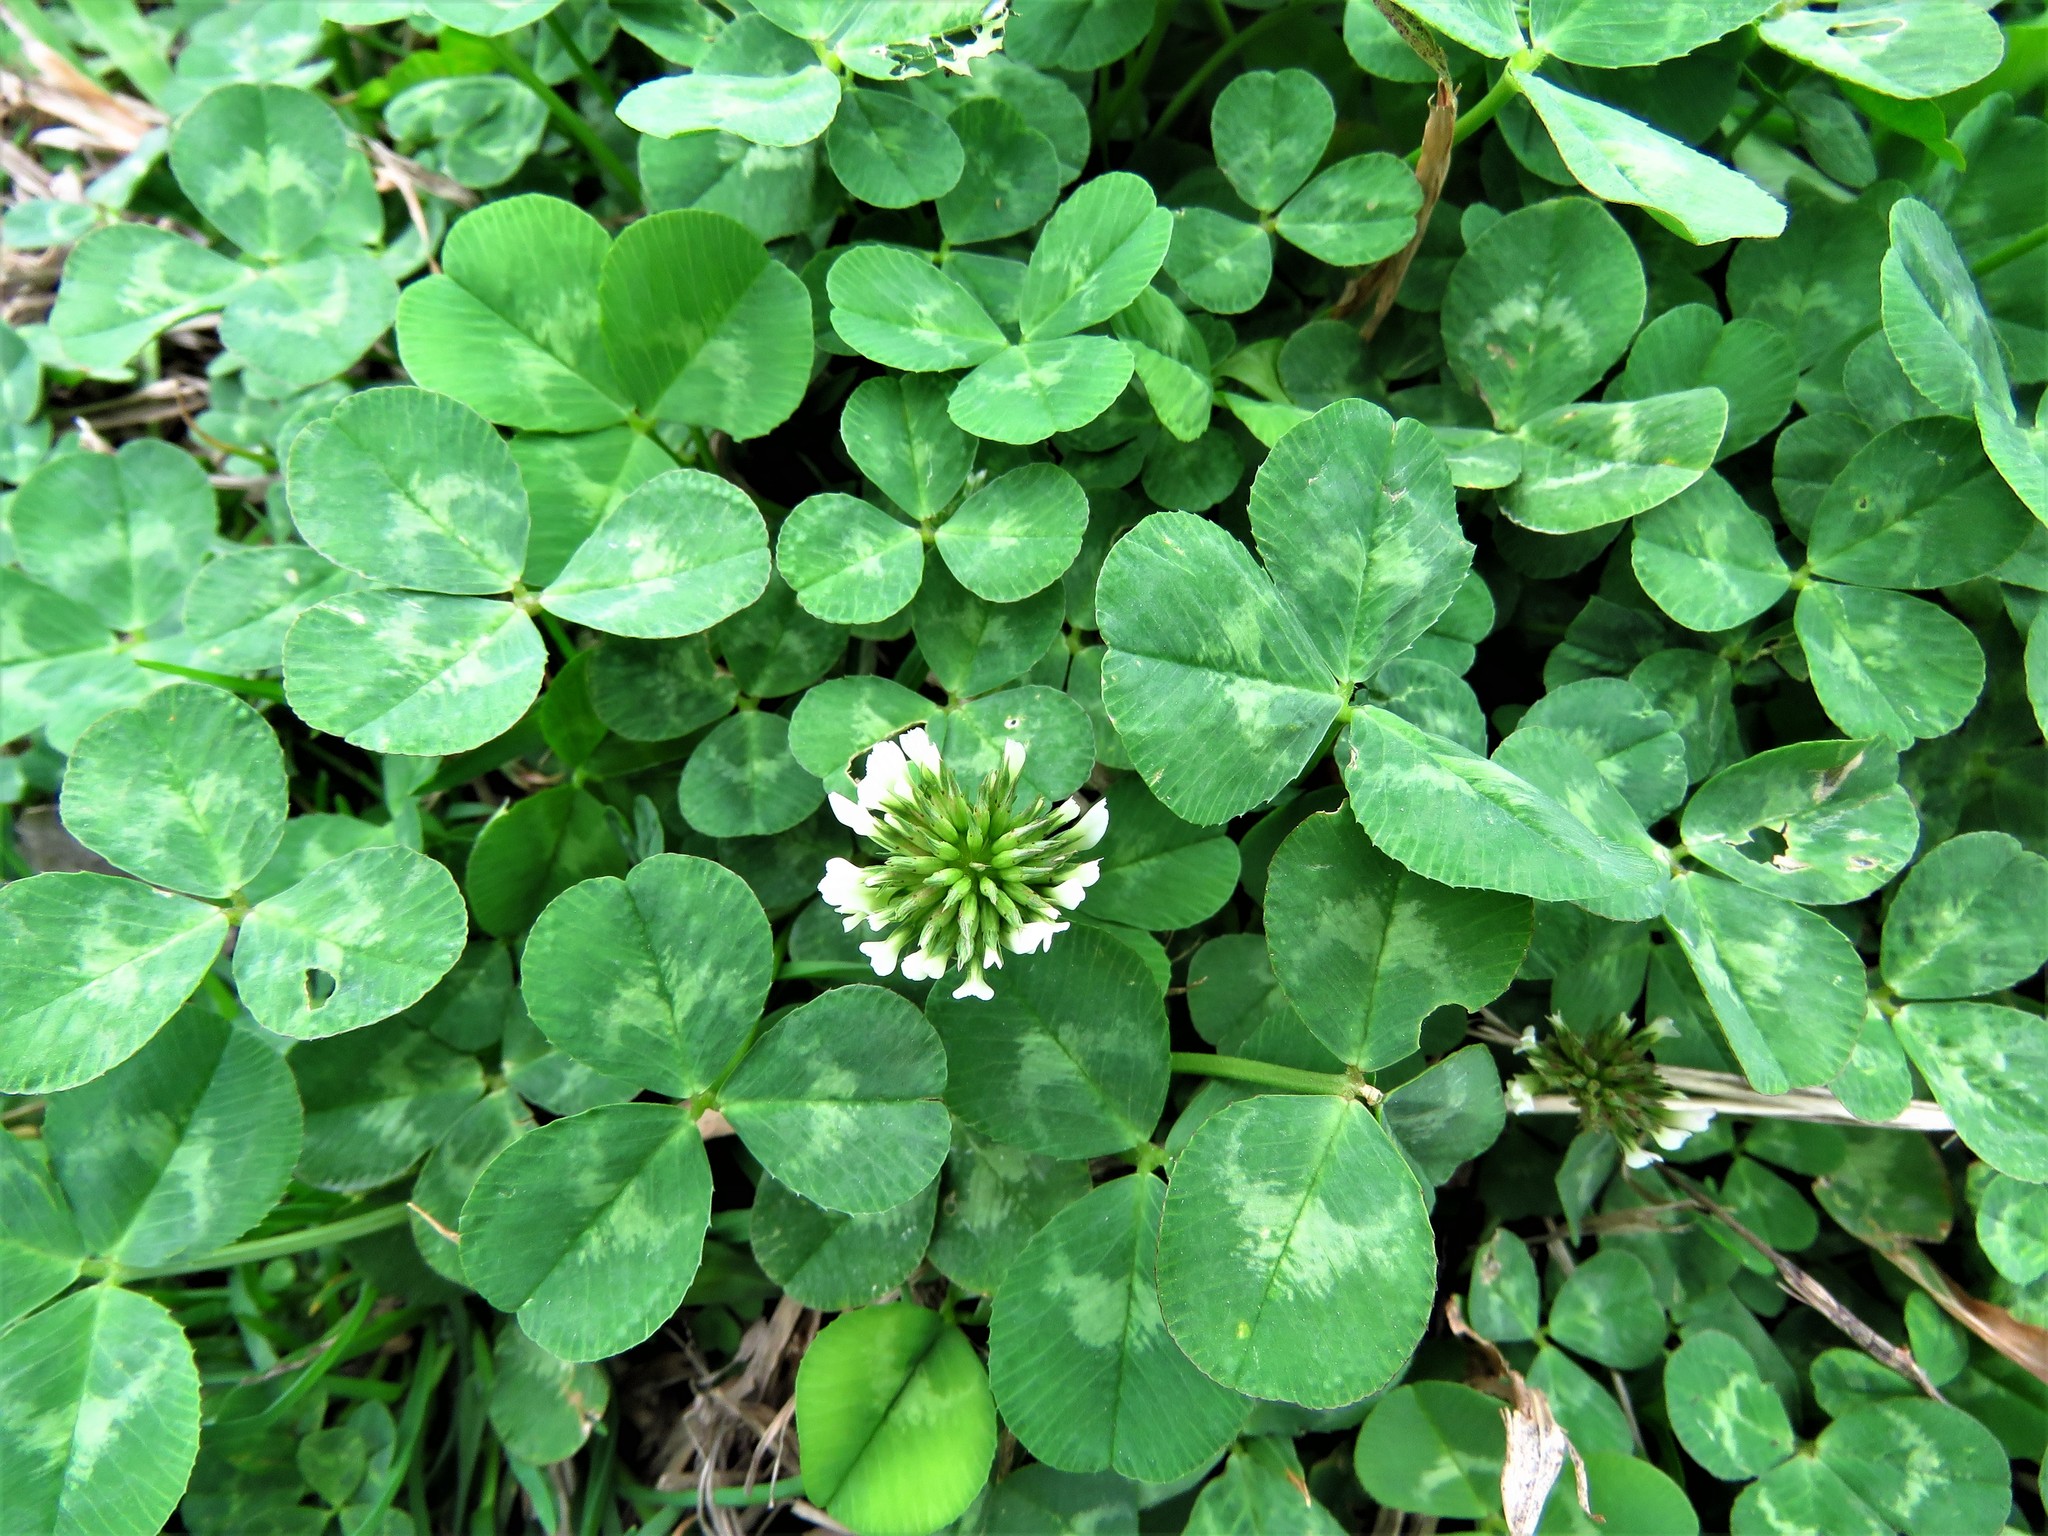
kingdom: Plantae
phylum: Tracheophyta
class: Magnoliopsida
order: Fabales
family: Fabaceae
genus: Trifolium
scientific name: Trifolium repens
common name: White clover
